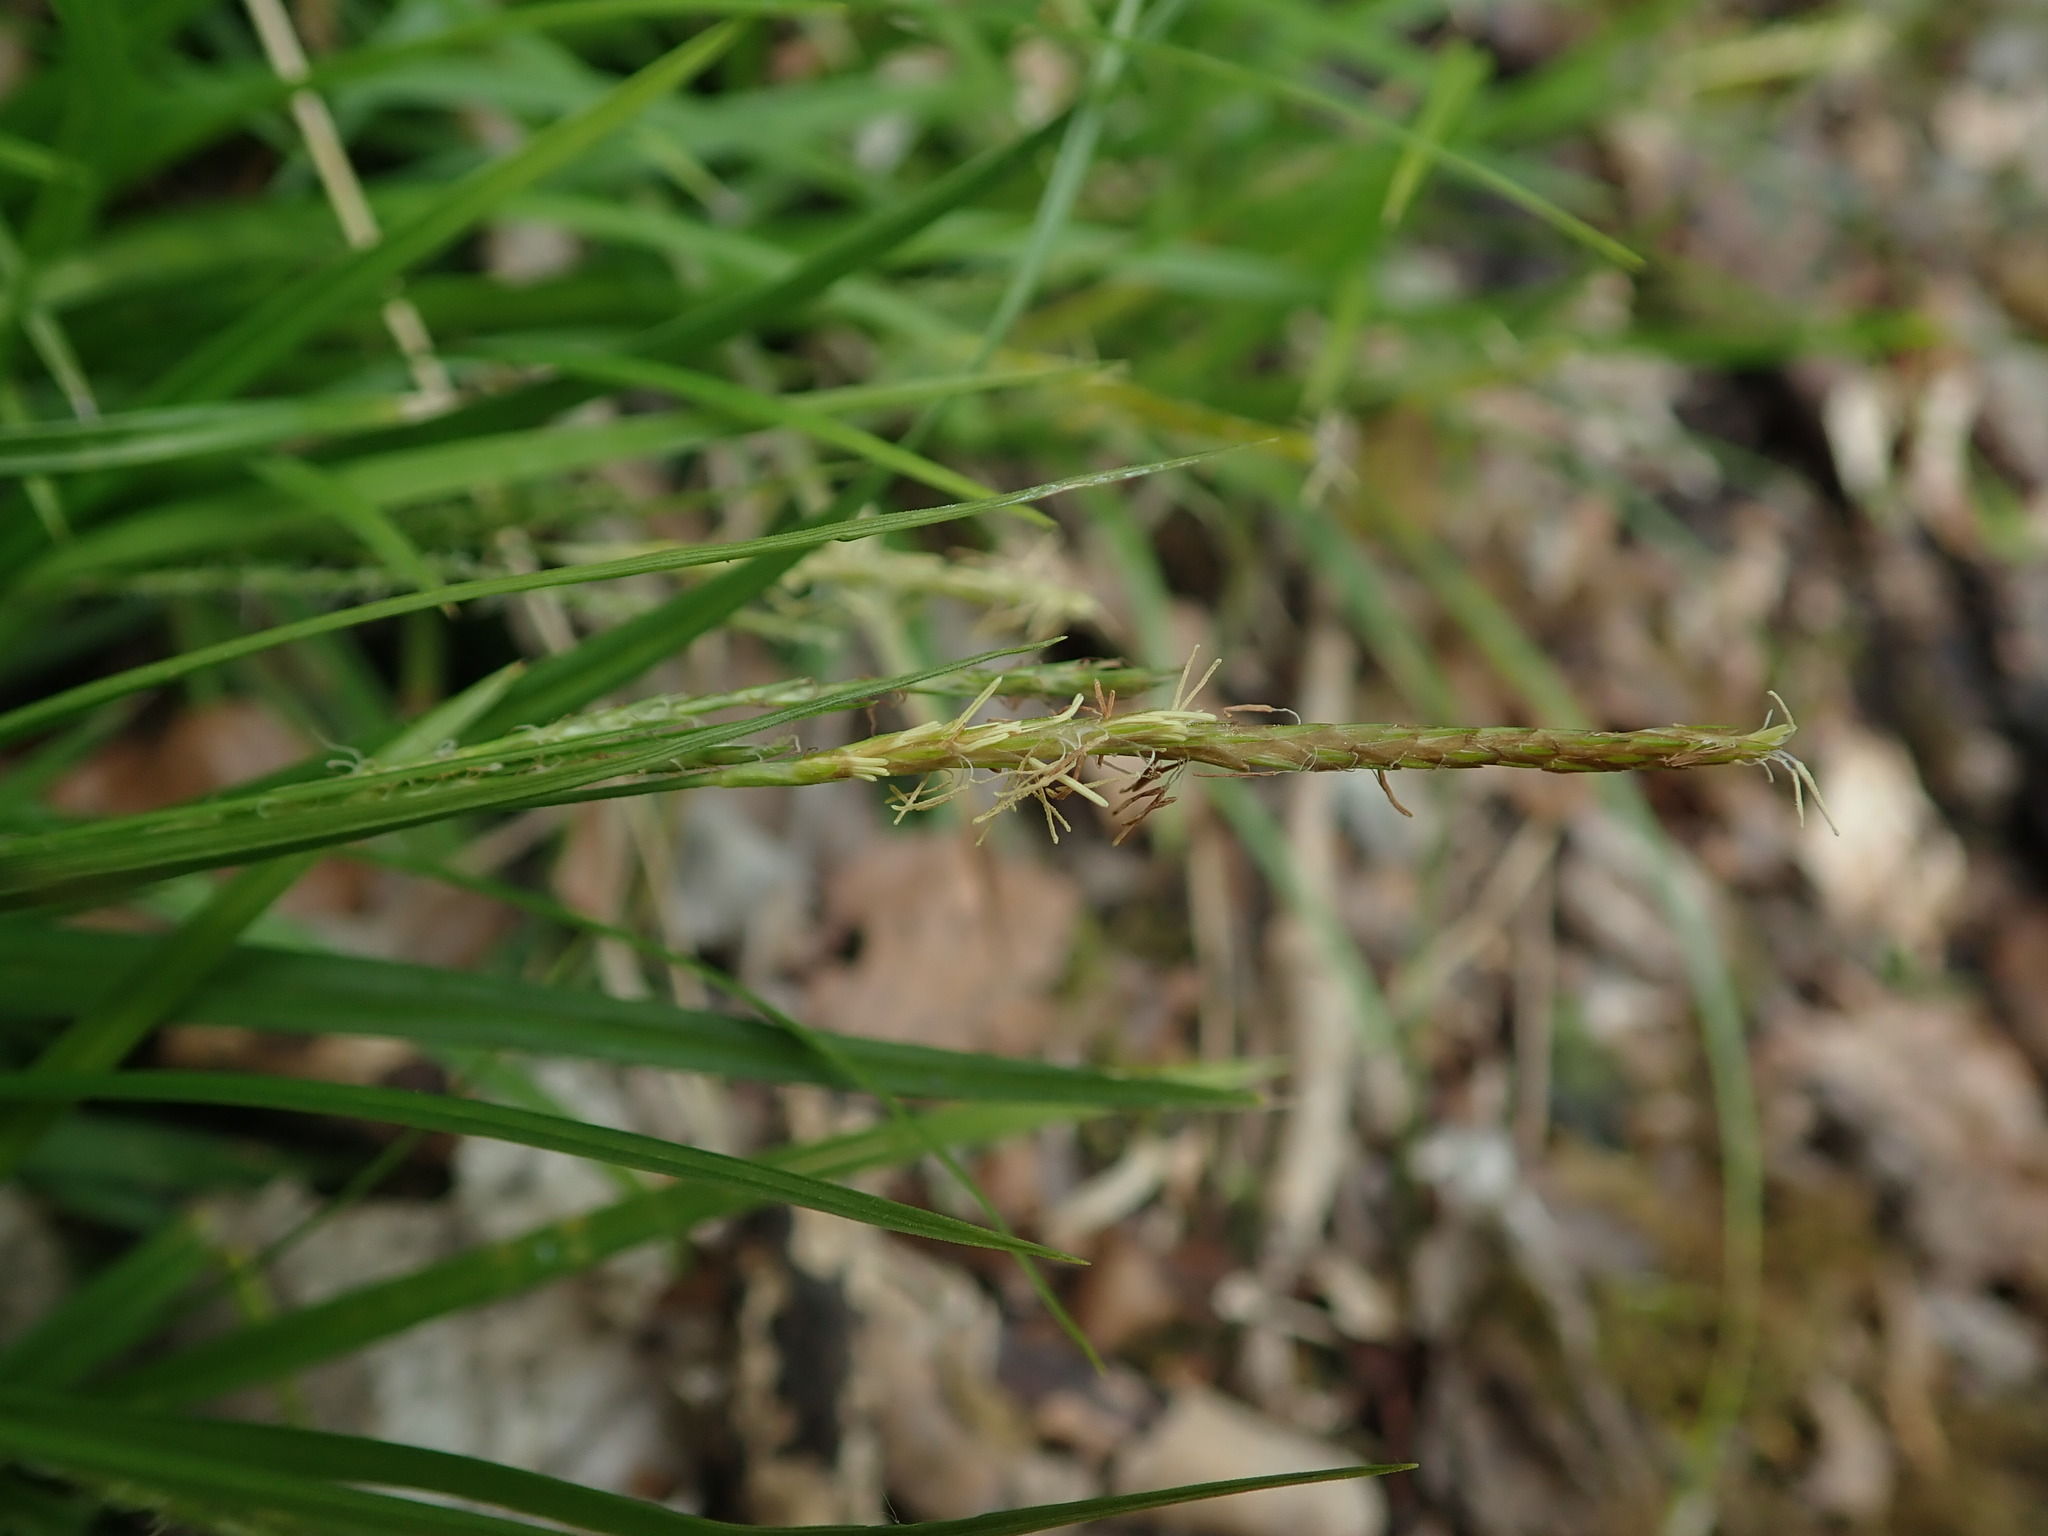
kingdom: Plantae
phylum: Tracheophyta
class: Liliopsida
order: Poales
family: Cyperaceae
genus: Carex
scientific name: Carex sylvatica
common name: Wood-sedge
